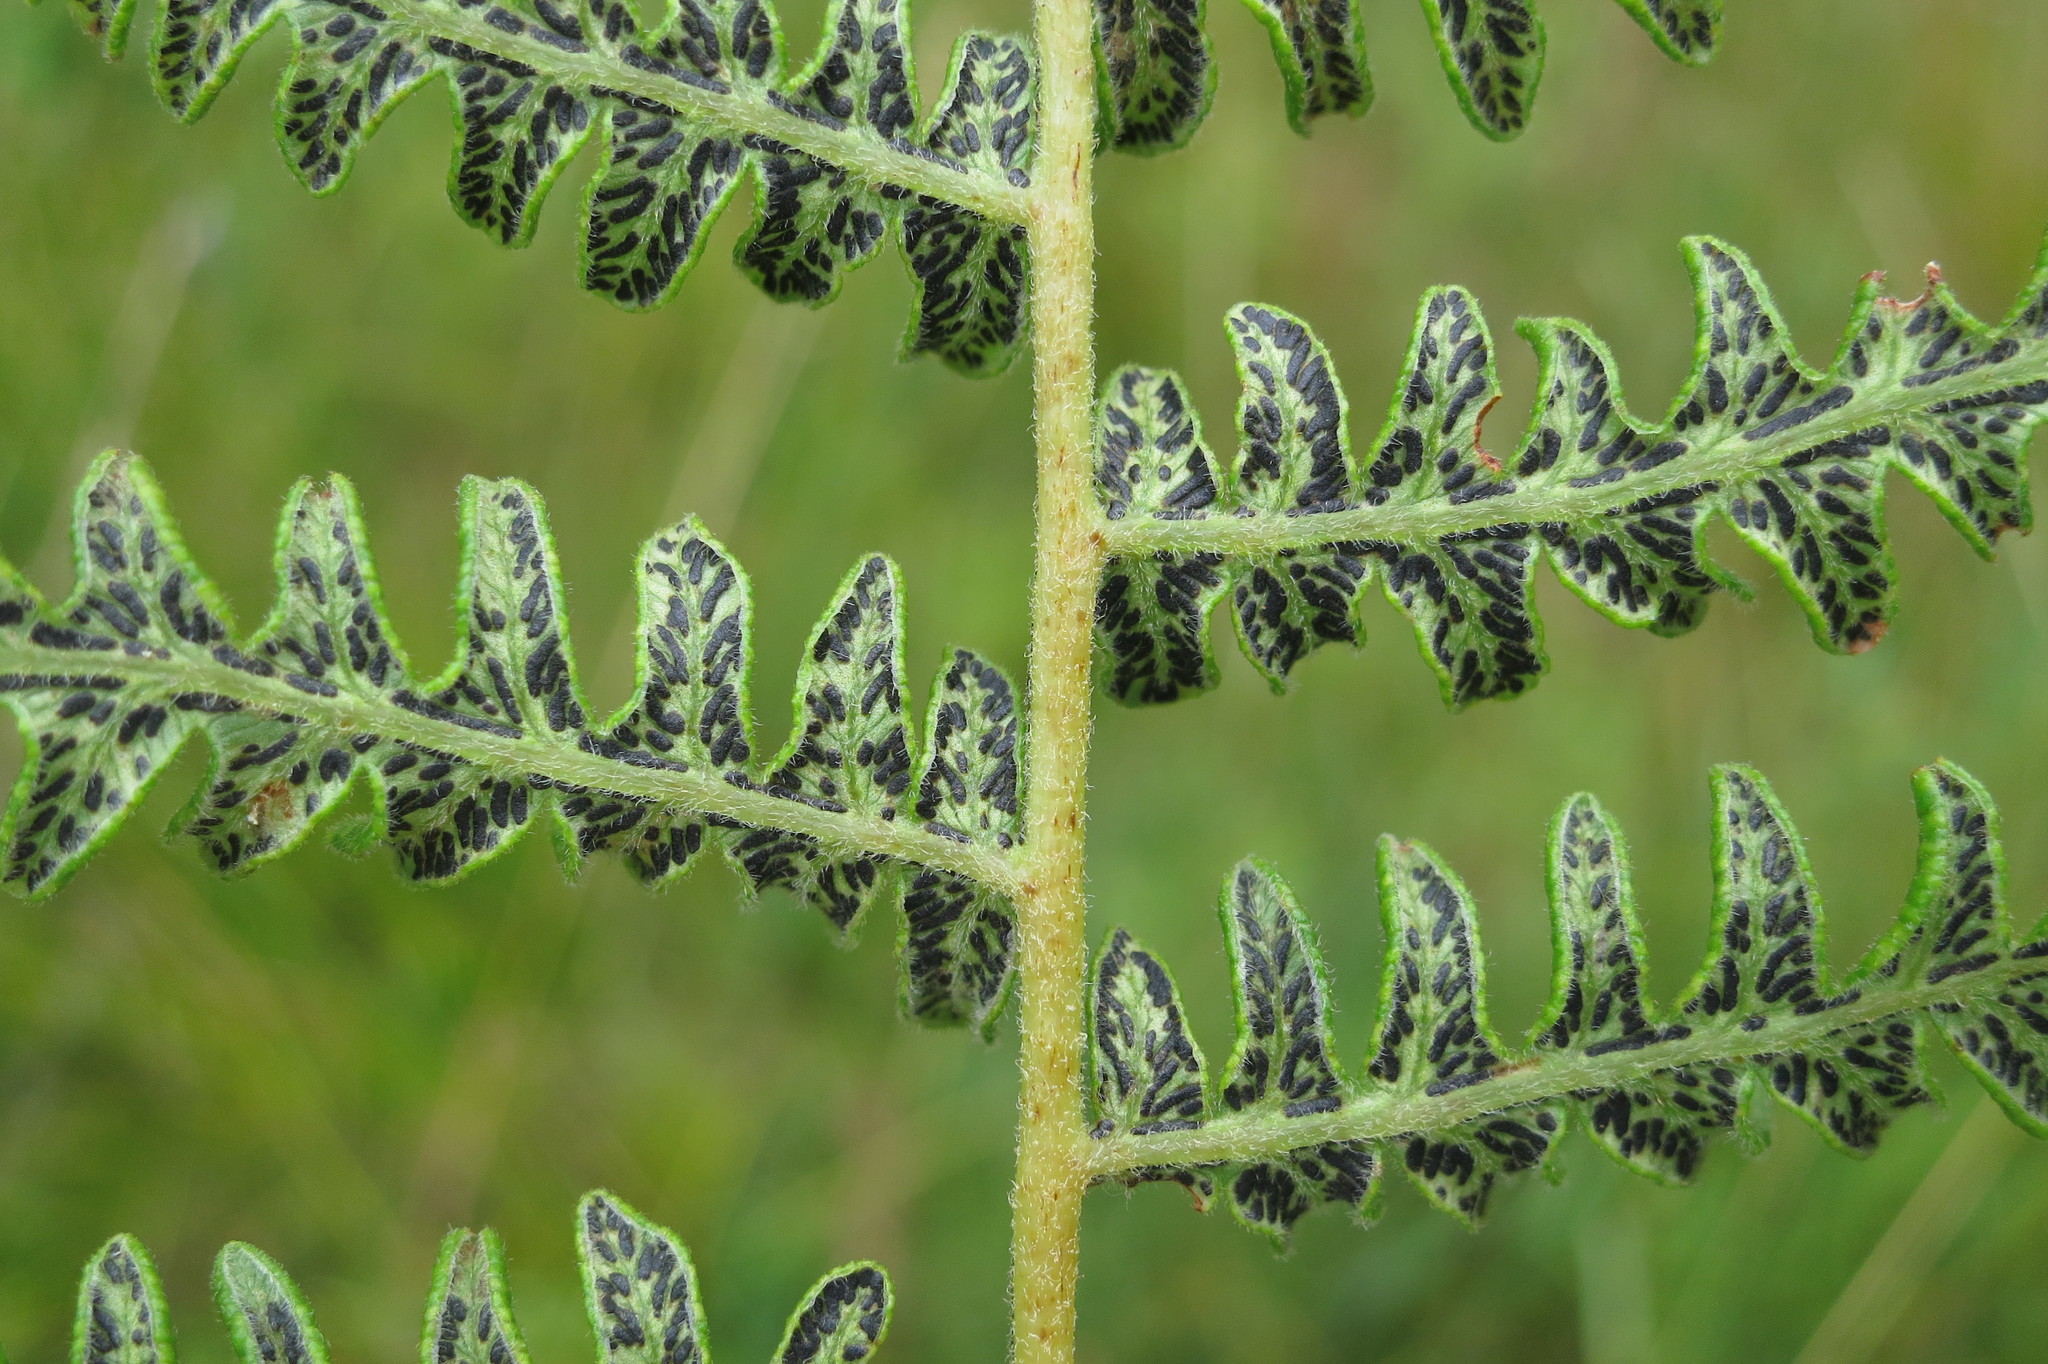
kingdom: Fungi
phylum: Ascomycota
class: Sordariomycetes
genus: Cryptomycina
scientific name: Cryptomycina pteridis
